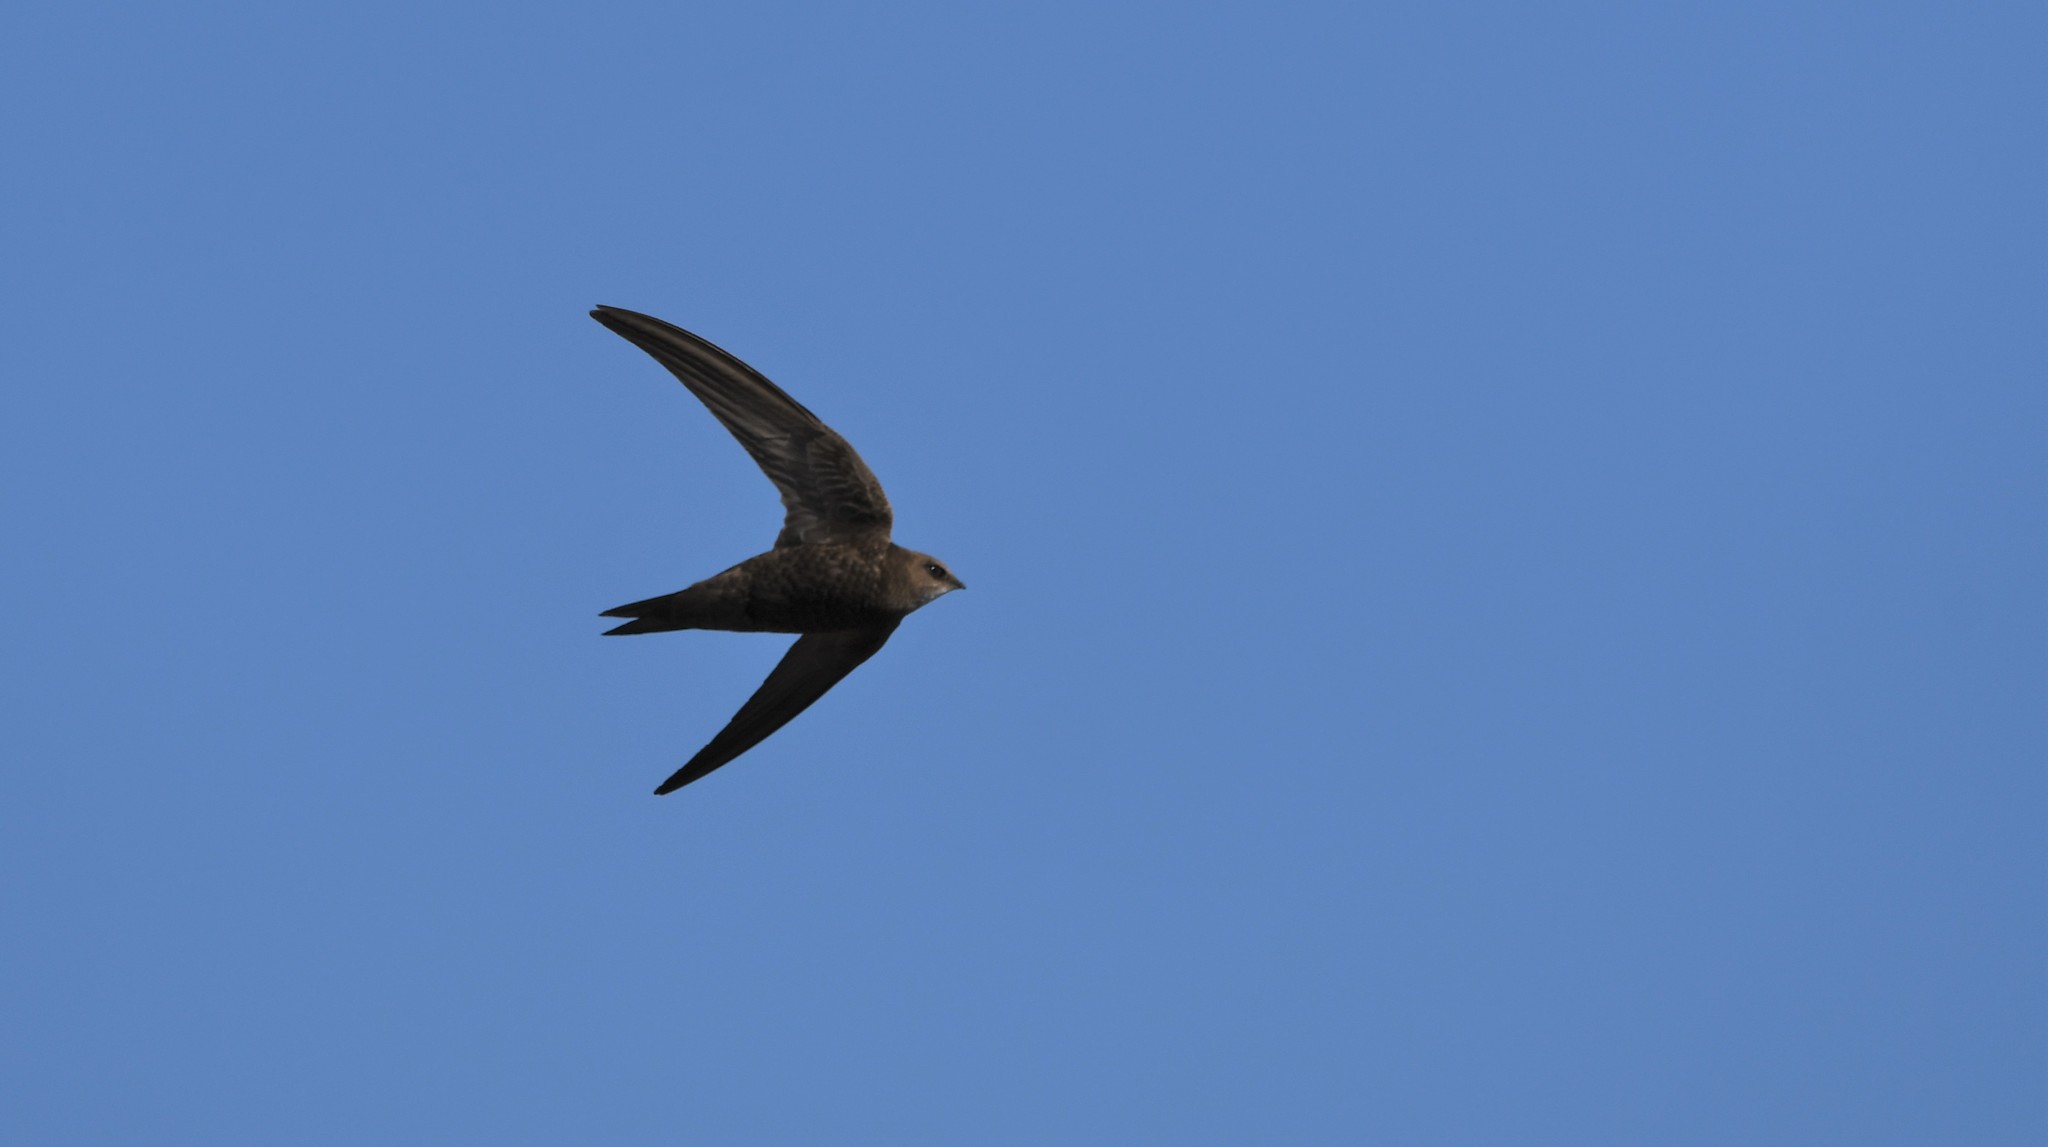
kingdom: Animalia
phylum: Chordata
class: Aves
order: Apodiformes
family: Apodidae
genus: Apus
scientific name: Apus pallidus
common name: Pallid swift
